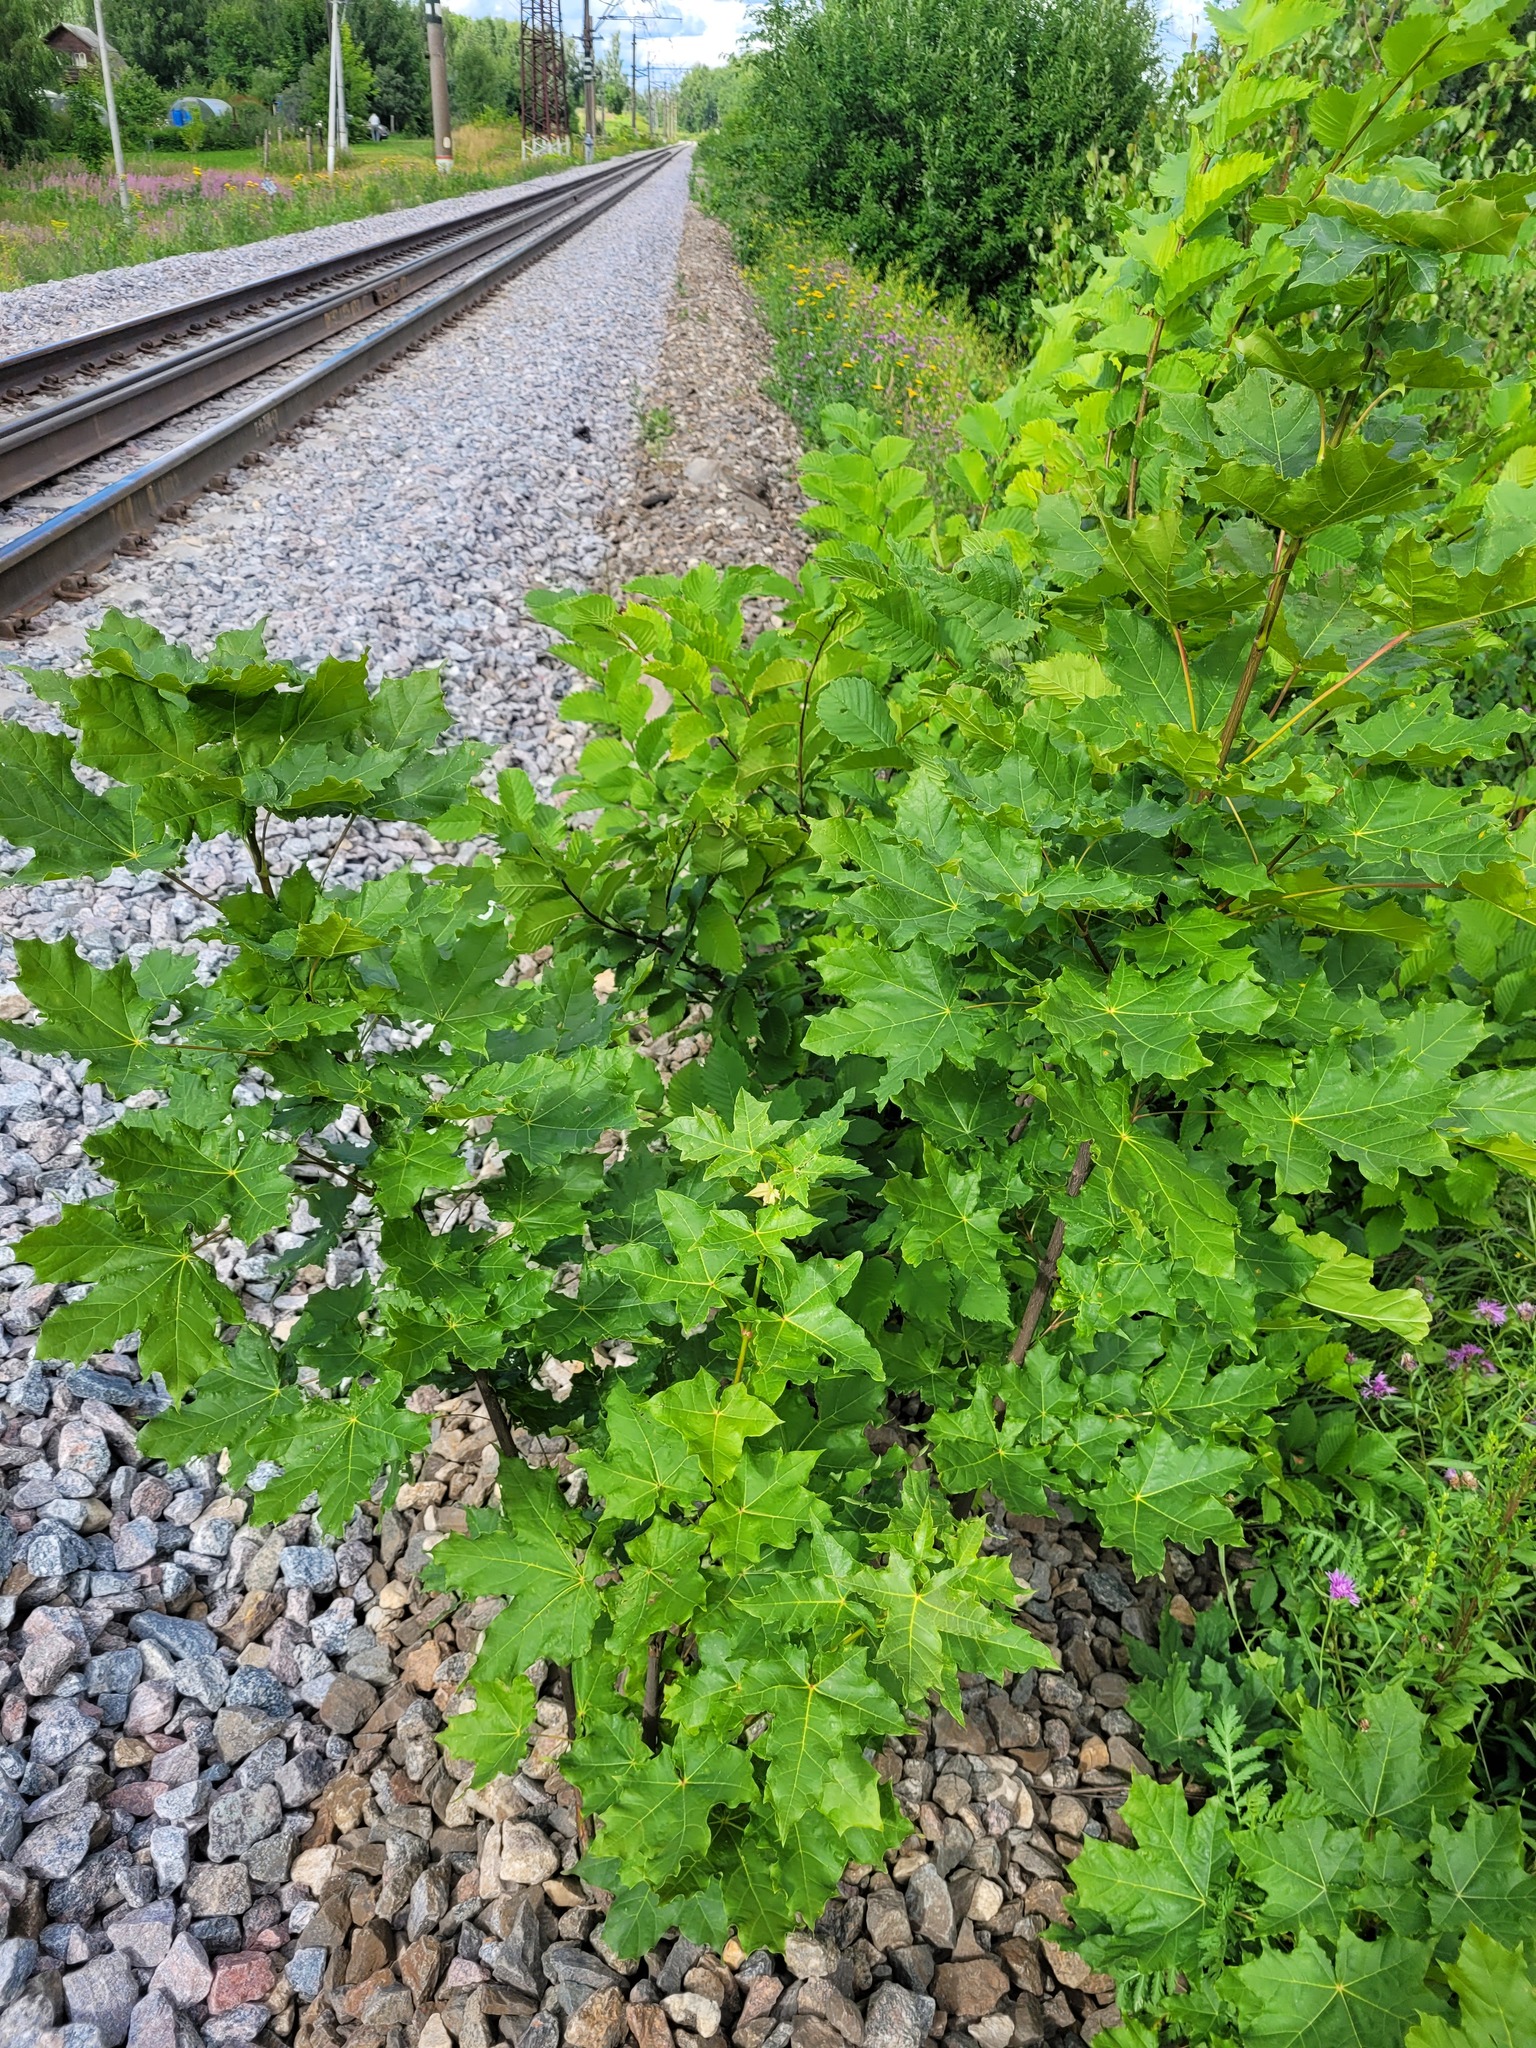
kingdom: Plantae
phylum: Tracheophyta
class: Magnoliopsida
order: Sapindales
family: Sapindaceae
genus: Acer
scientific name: Acer platanoides
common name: Norway maple
